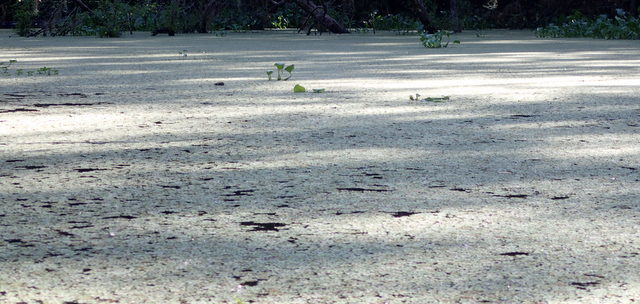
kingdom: Plantae
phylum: Tracheophyta
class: Polypodiopsida
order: Salviniales
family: Salviniaceae
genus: Salvinia
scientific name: Salvinia minima
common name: Water spangles
